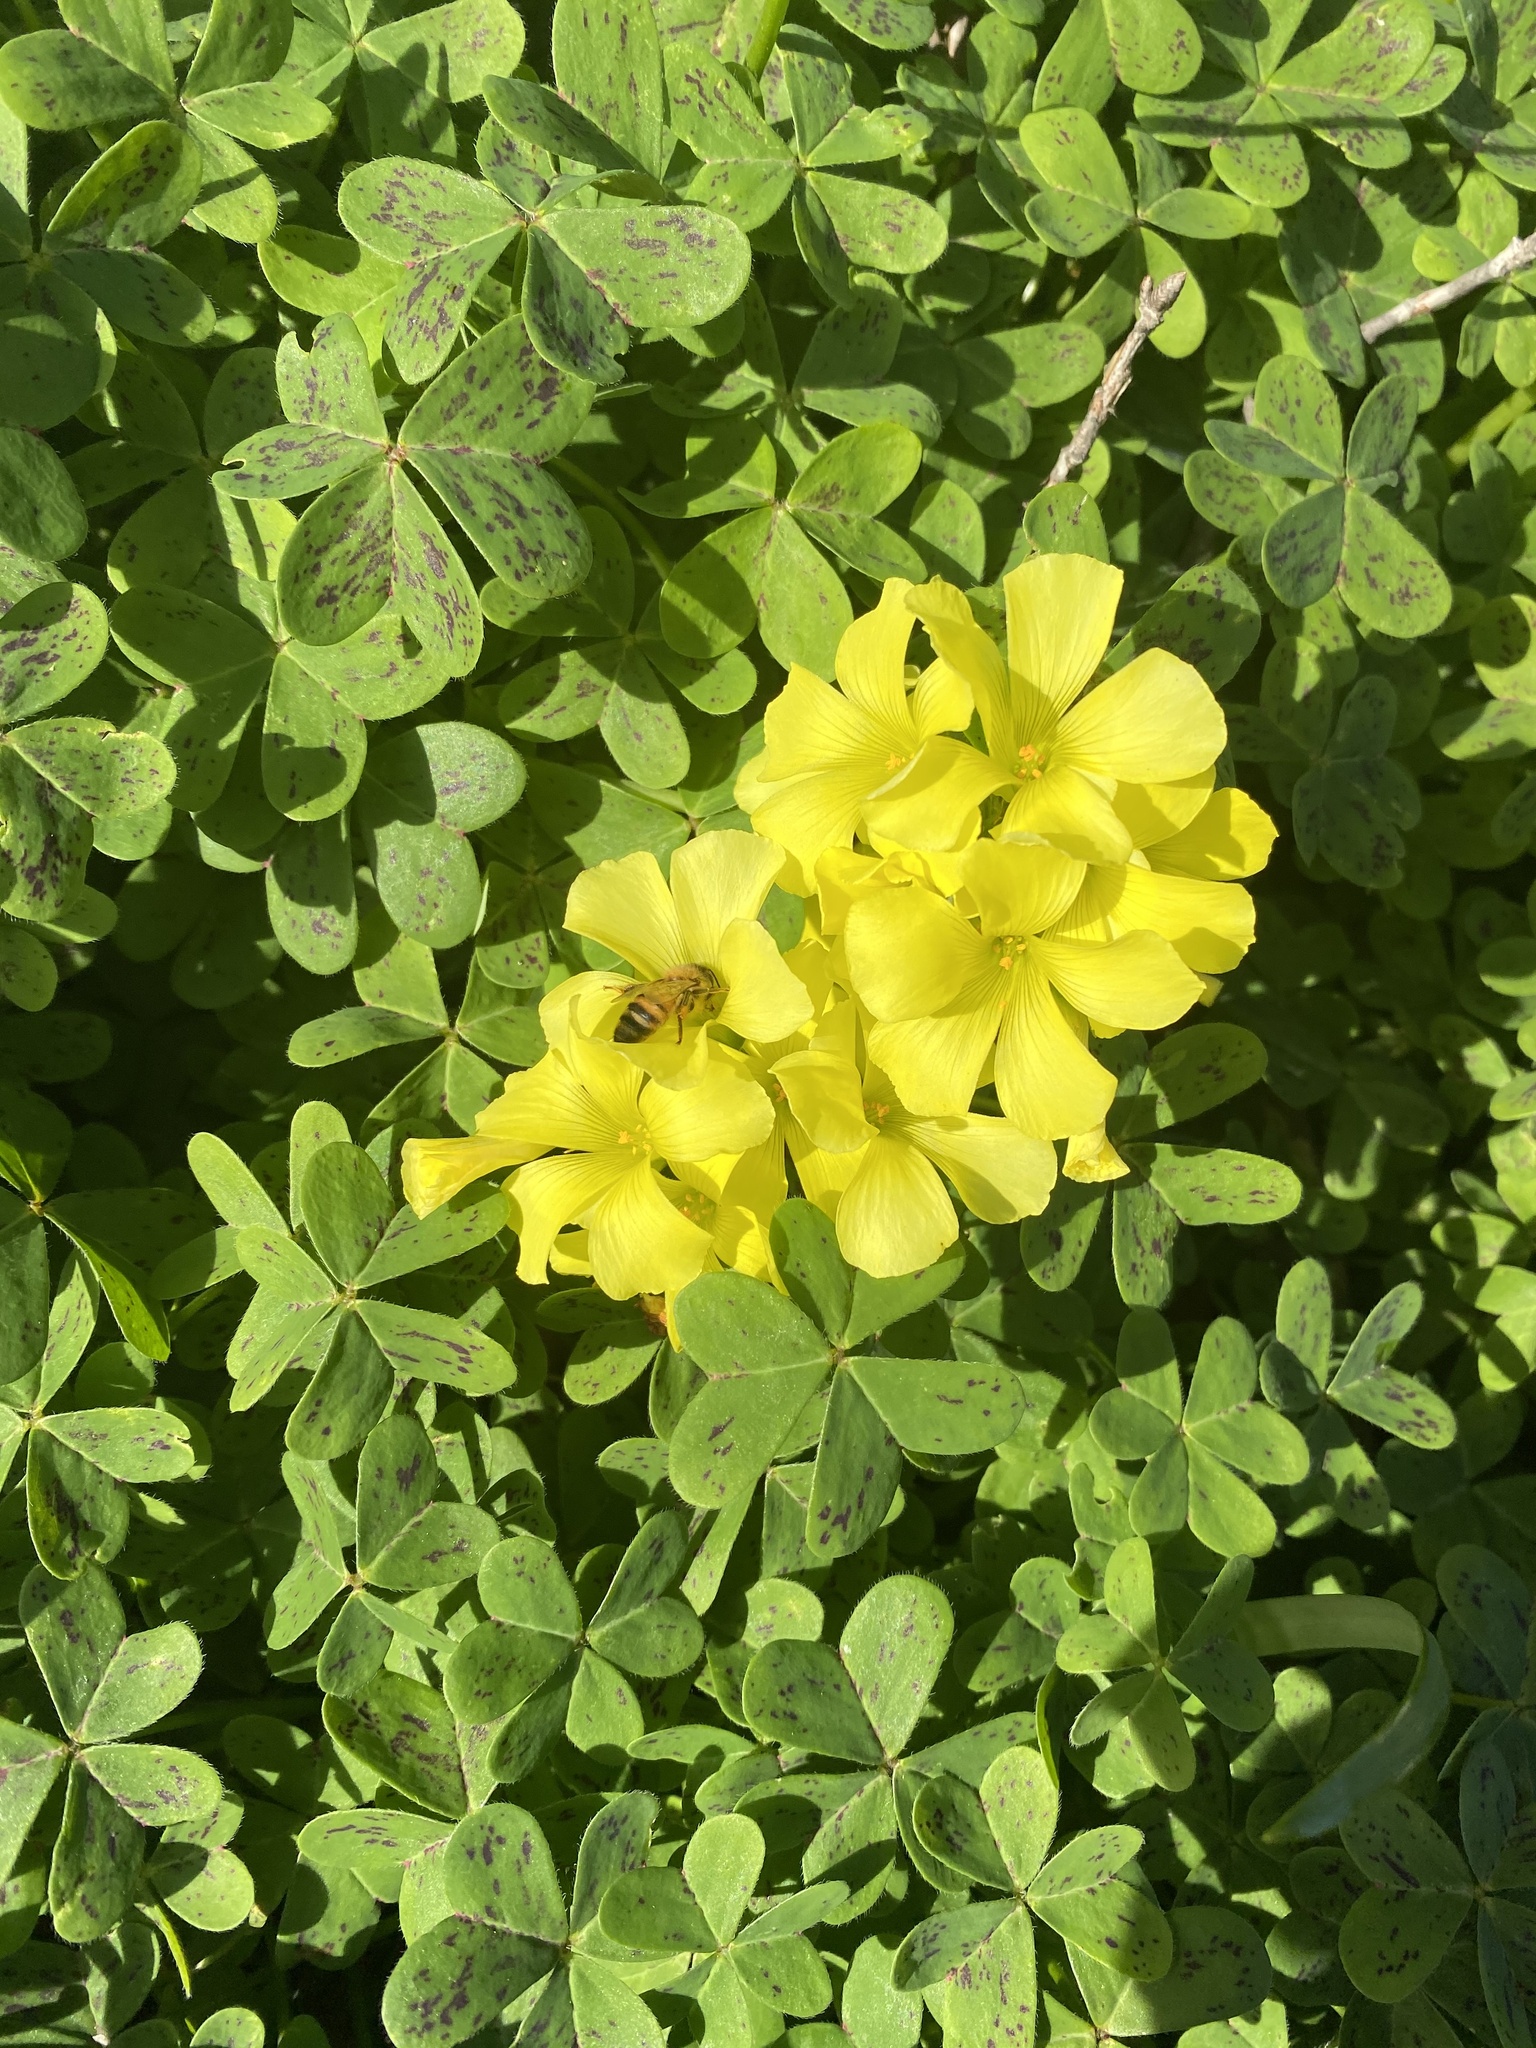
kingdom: Animalia
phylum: Arthropoda
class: Insecta
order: Hymenoptera
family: Apidae
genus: Apis
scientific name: Apis mellifera
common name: Honey bee
